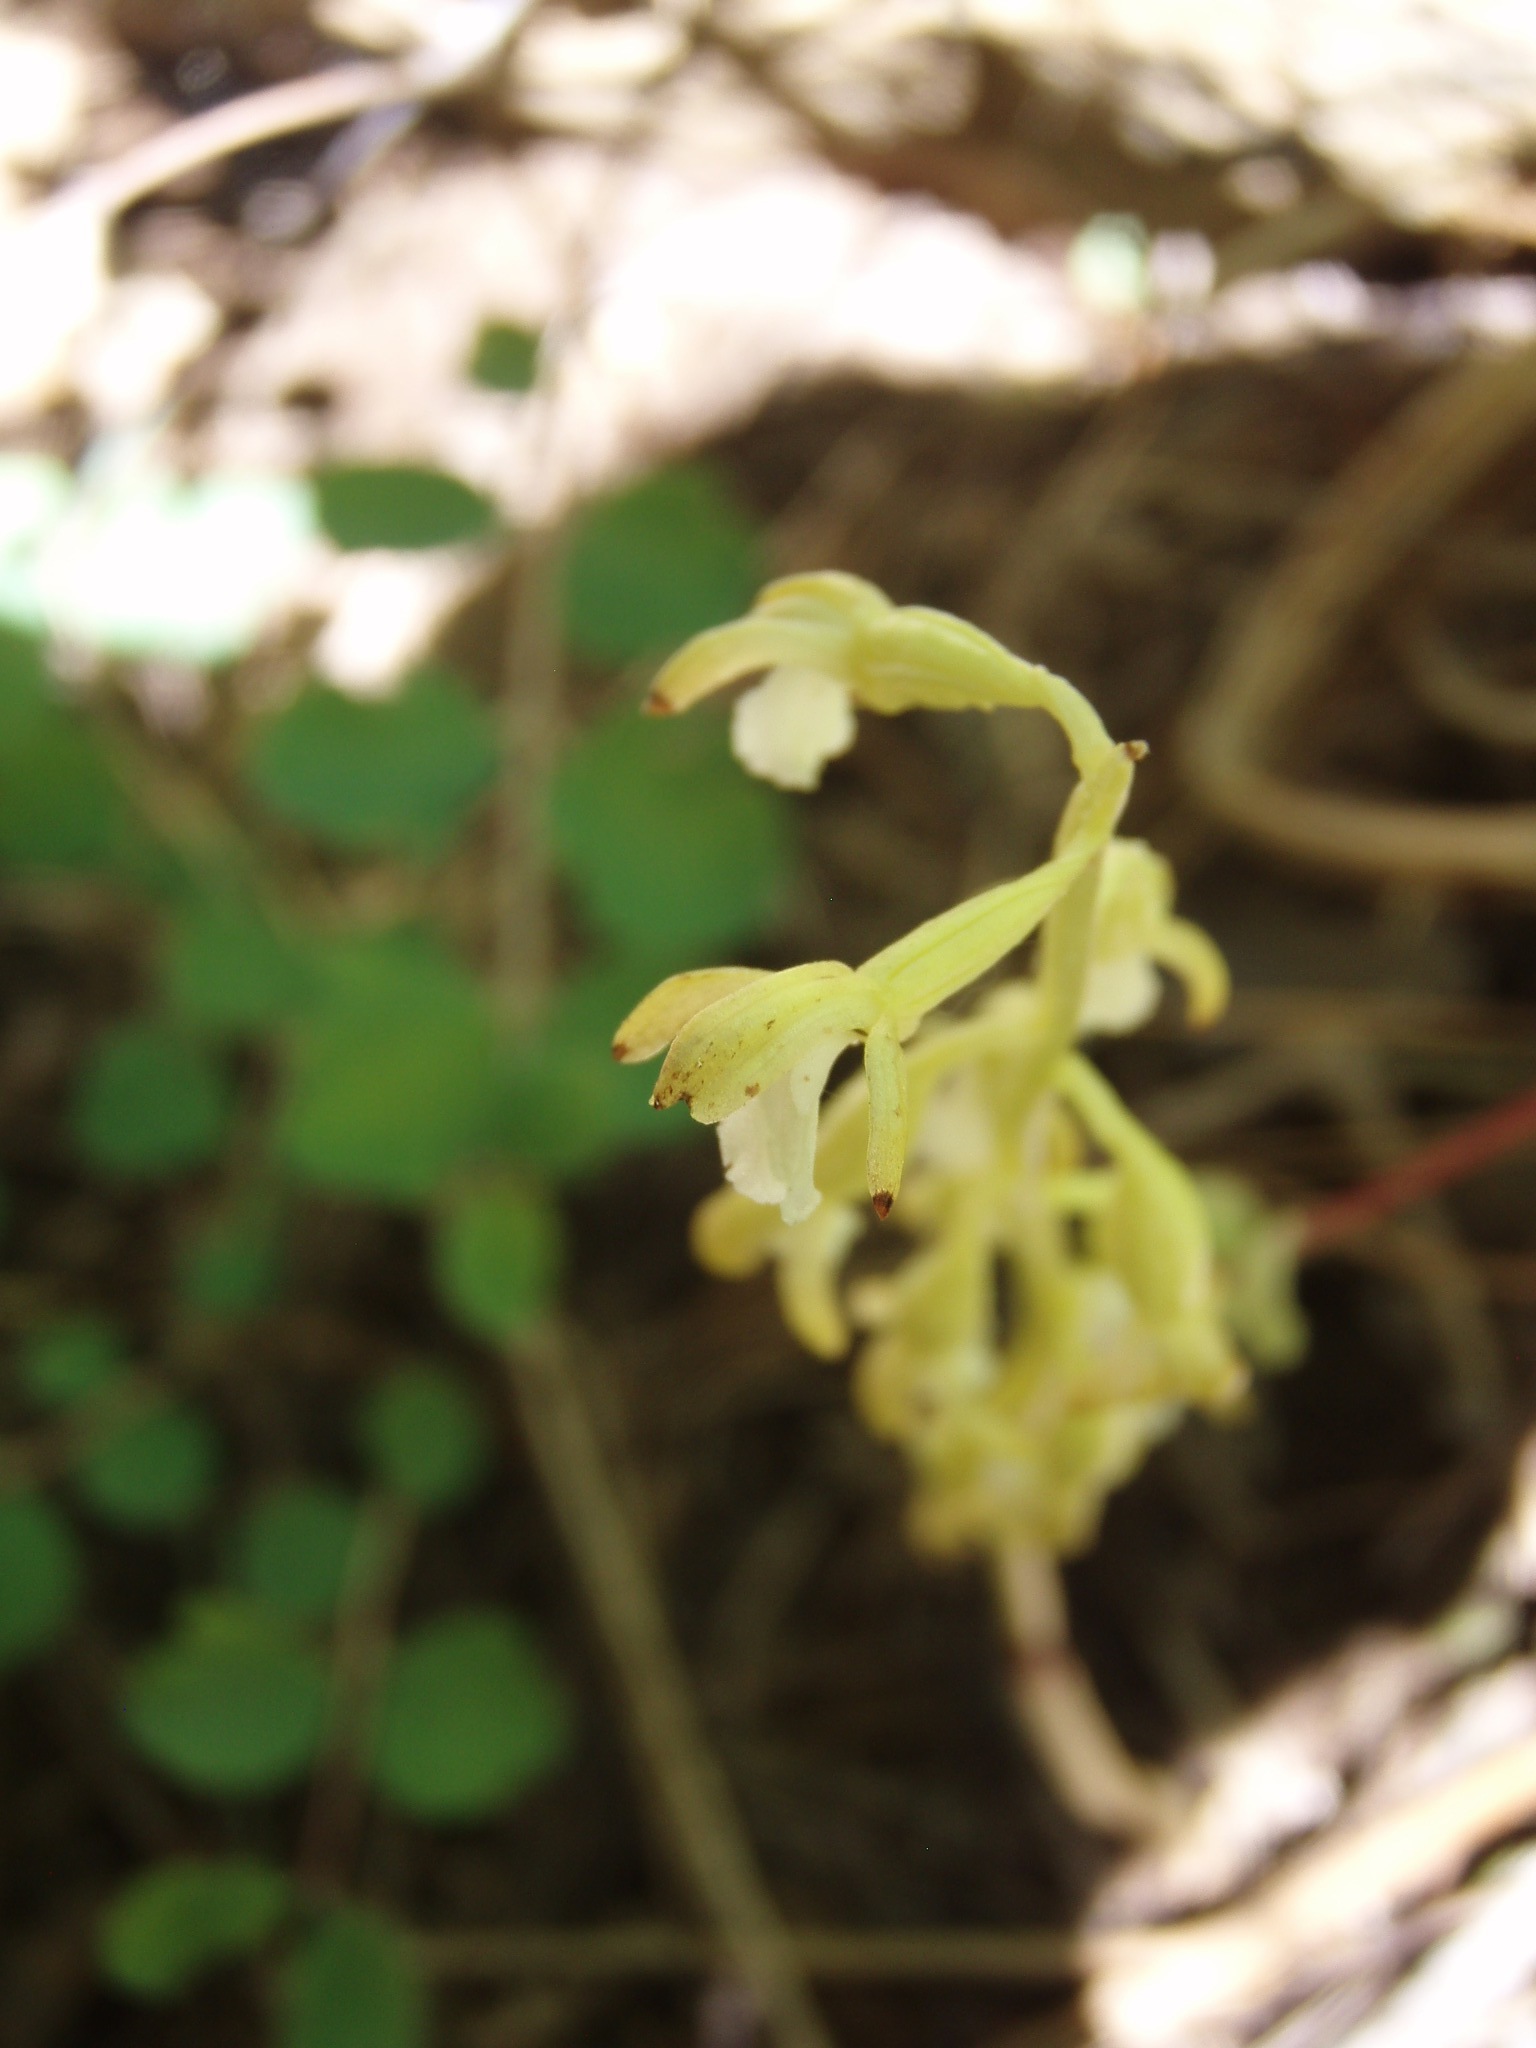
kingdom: Plantae
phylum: Tracheophyta
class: Liliopsida
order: Asparagales
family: Orchidaceae
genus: Corallorhiza
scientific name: Corallorhiza maculata
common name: Spotted coralroot
